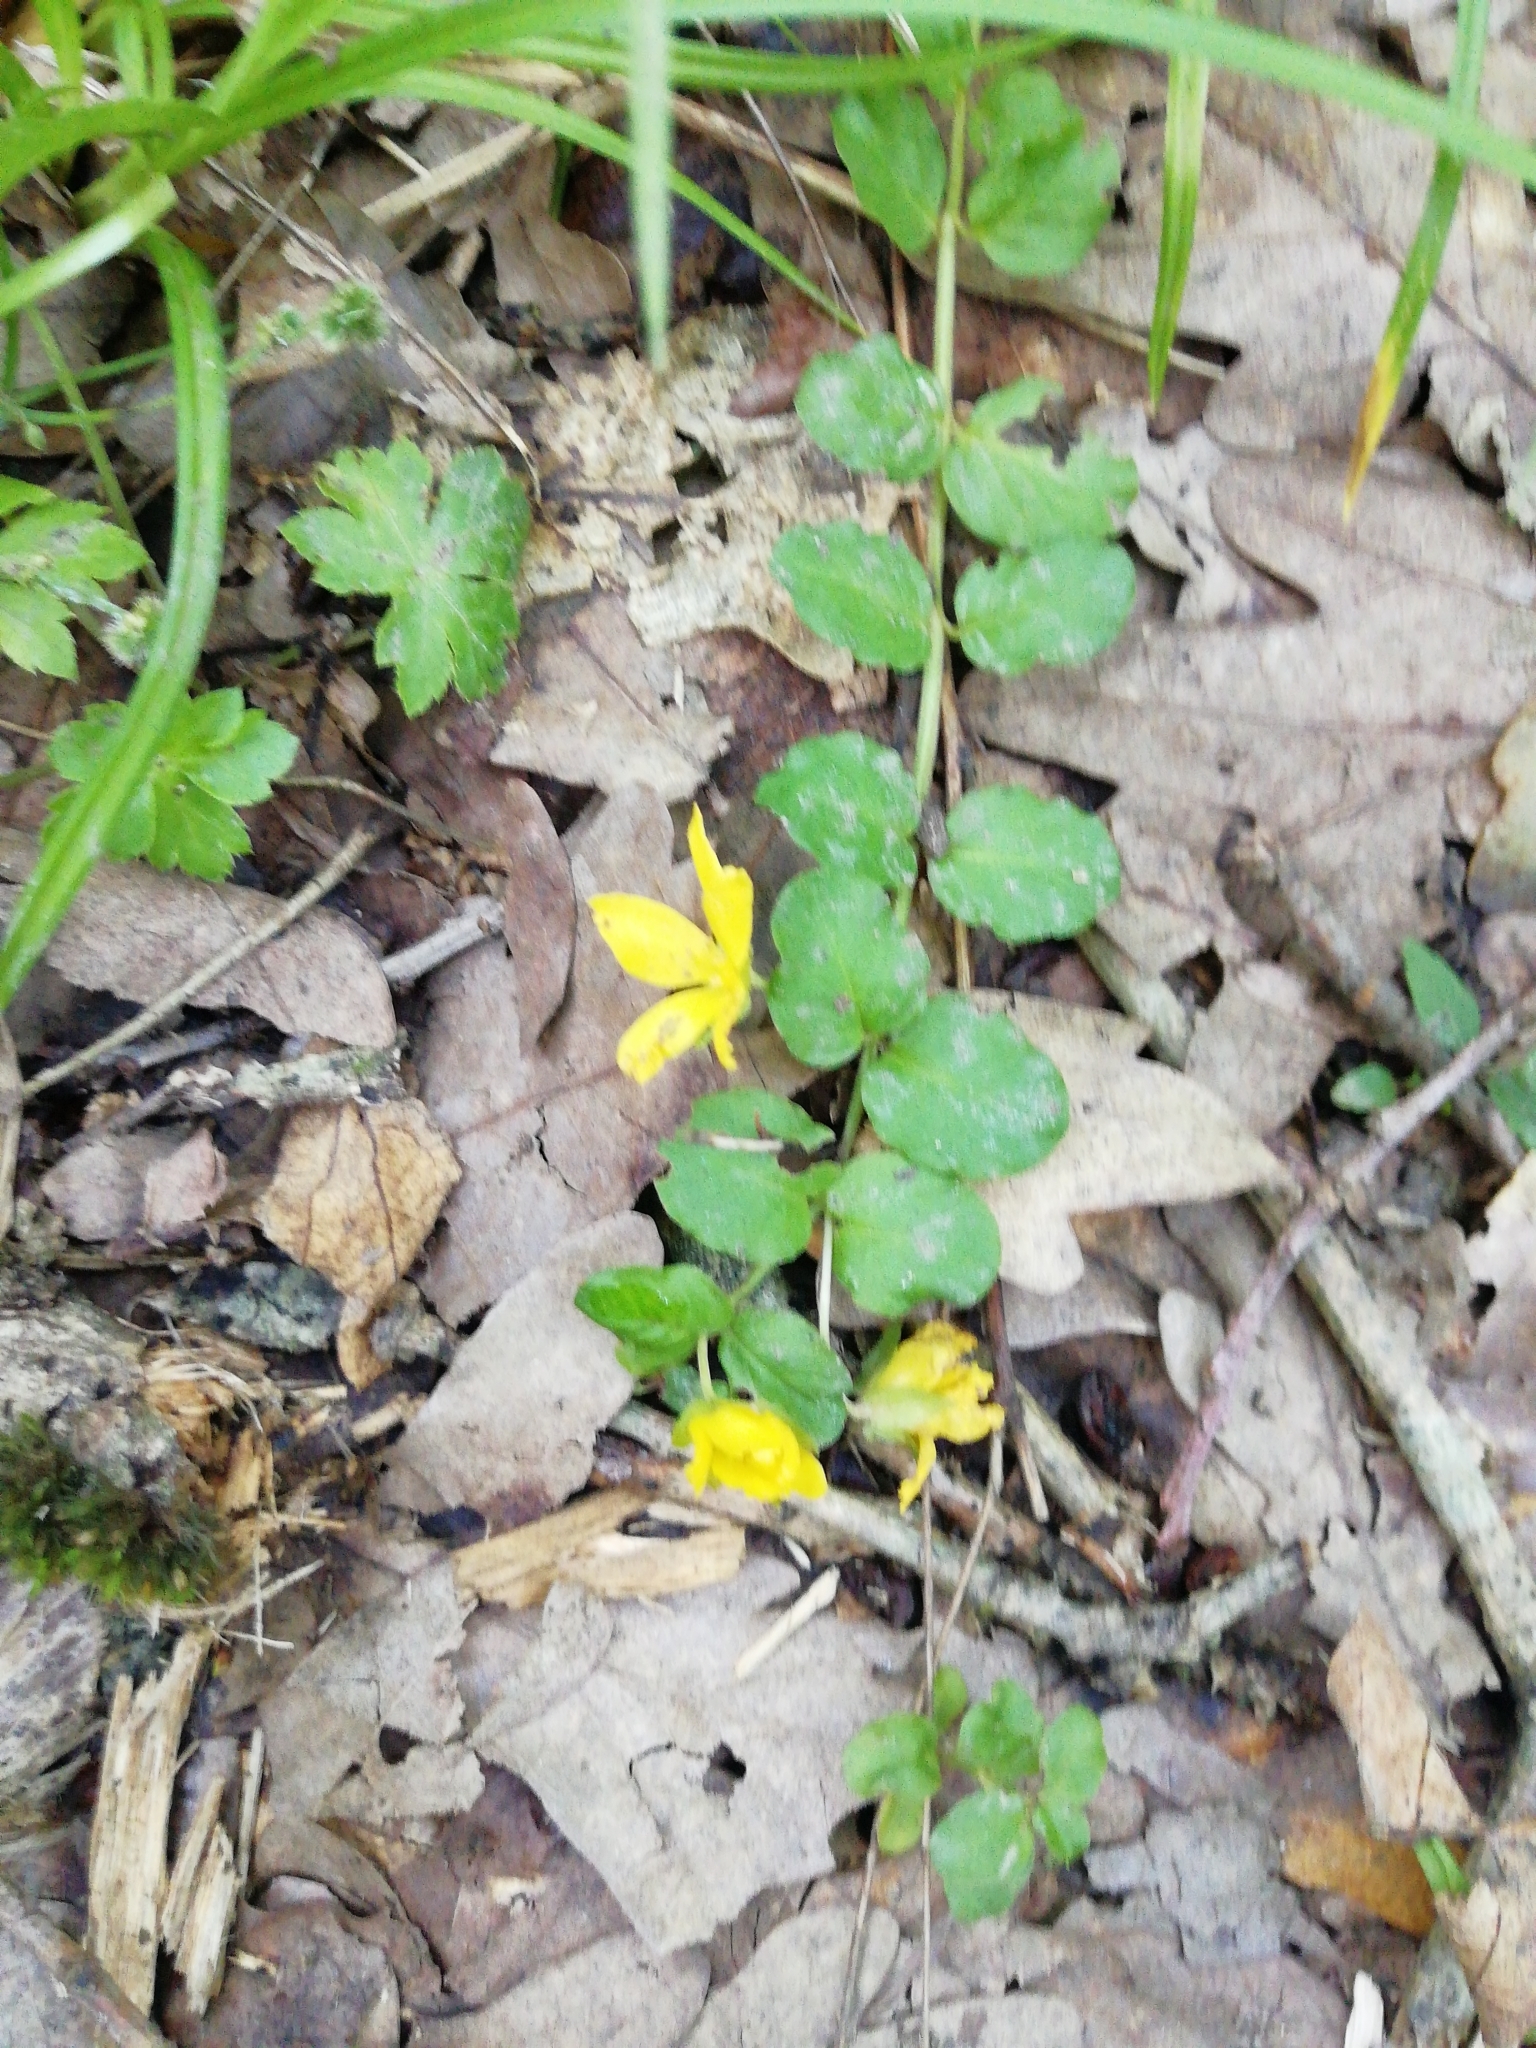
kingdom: Plantae
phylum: Tracheophyta
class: Magnoliopsida
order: Ericales
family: Primulaceae
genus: Lysimachia
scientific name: Lysimachia nummularia
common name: Moneywort
